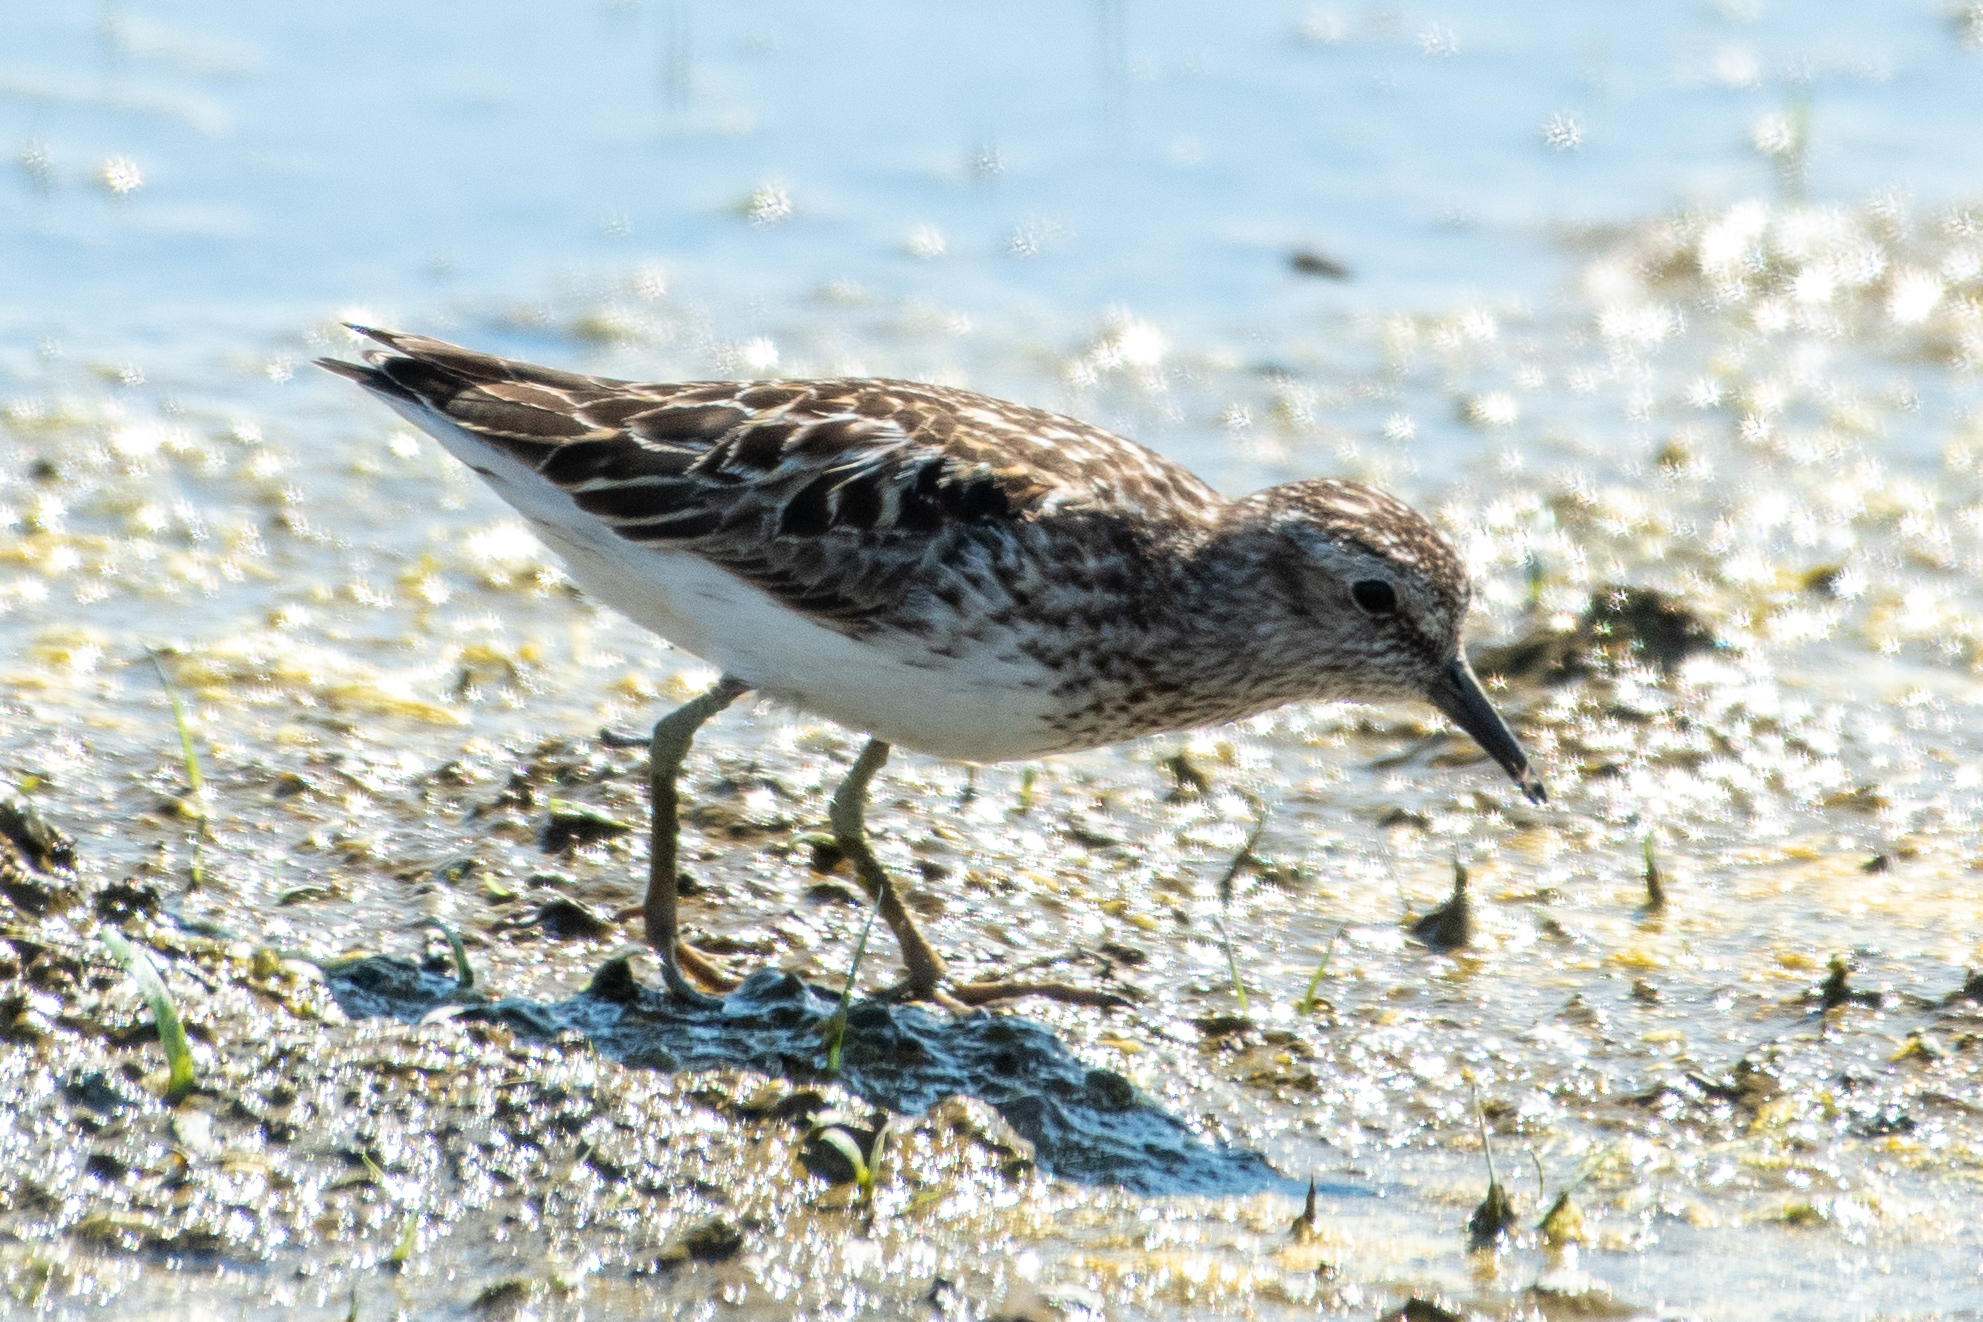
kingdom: Animalia
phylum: Chordata
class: Aves
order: Charadriiformes
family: Scolopacidae
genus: Calidris
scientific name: Calidris minutilla
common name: Least sandpiper
